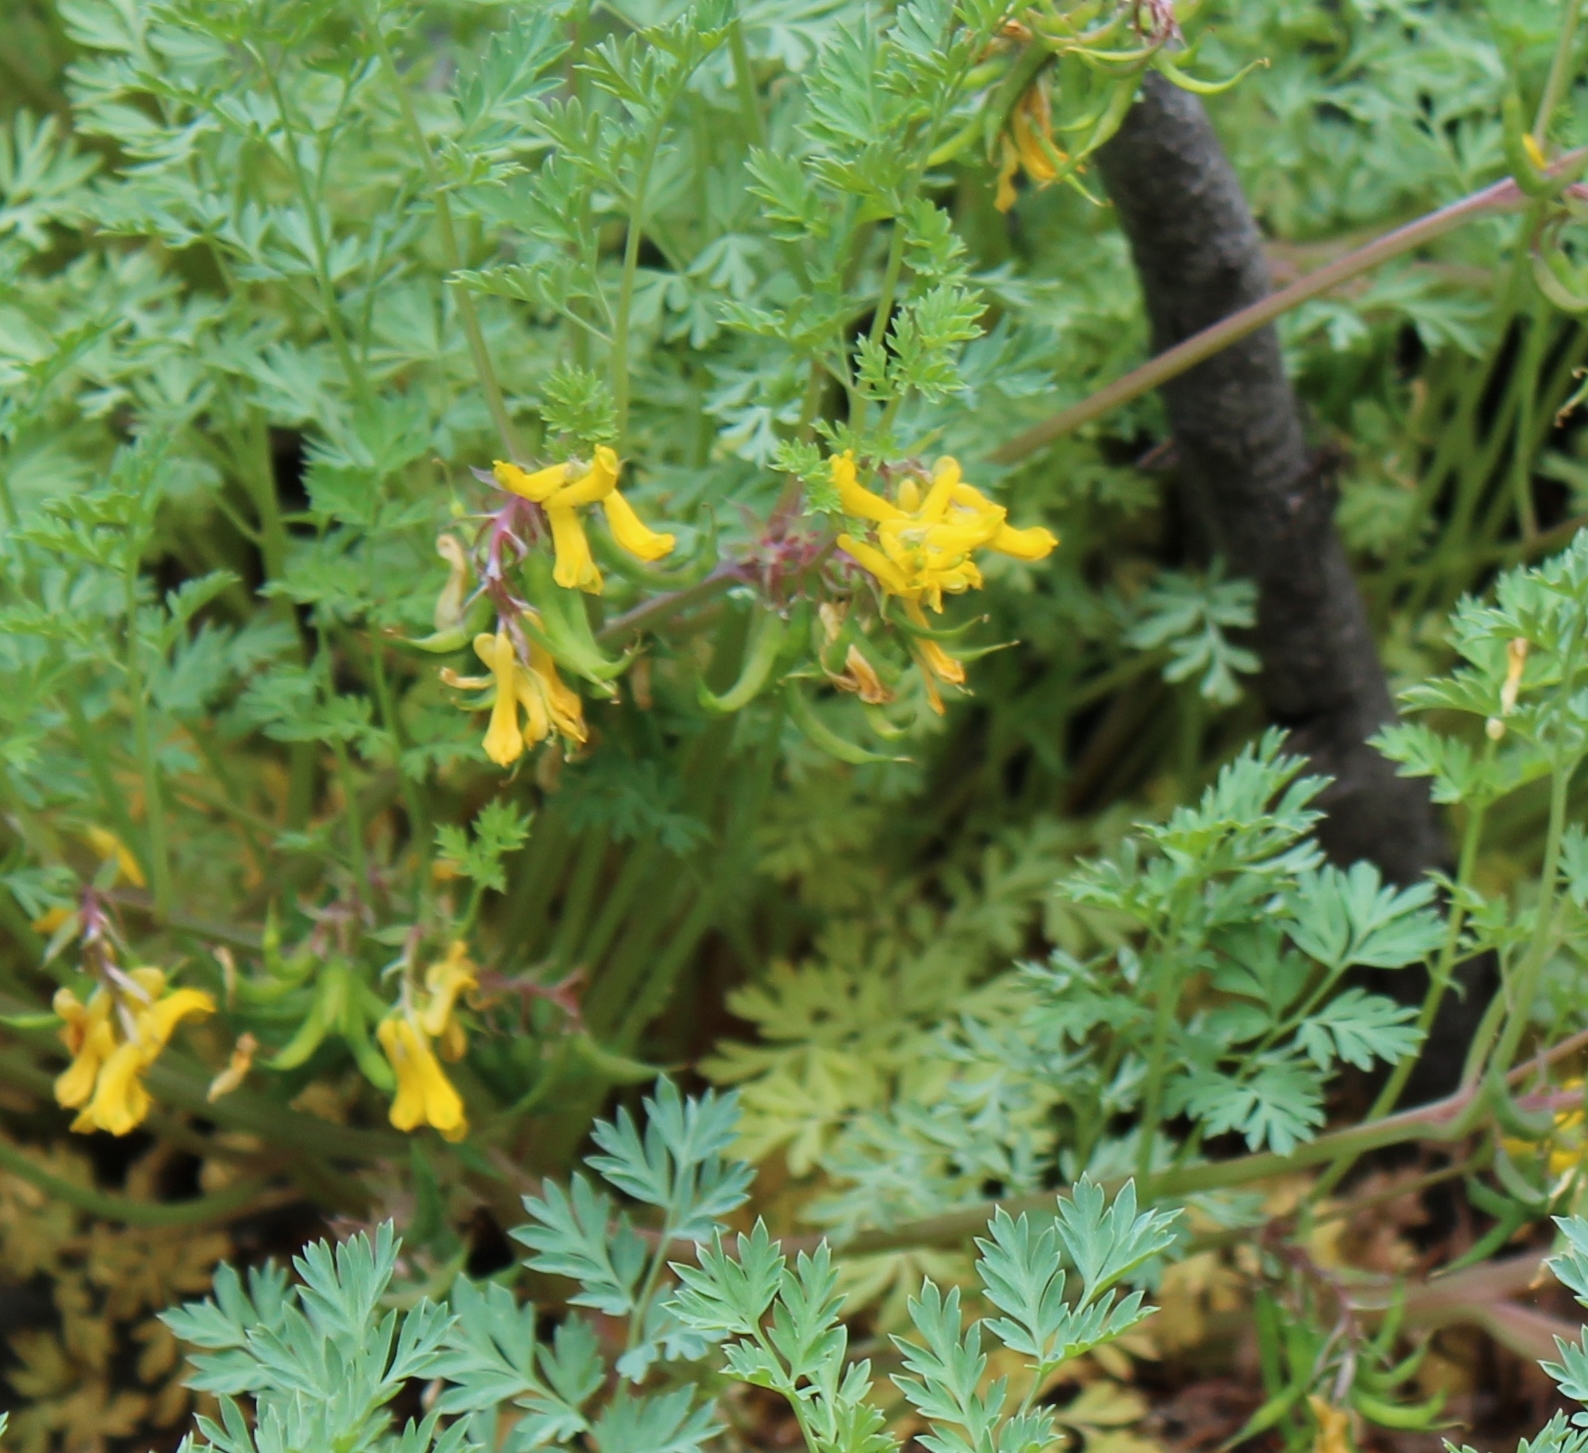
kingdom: Plantae
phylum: Tracheophyta
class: Magnoliopsida
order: Ranunculales
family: Papaveraceae
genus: Corydalis
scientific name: Corydalis aurea
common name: Golden corydalis
